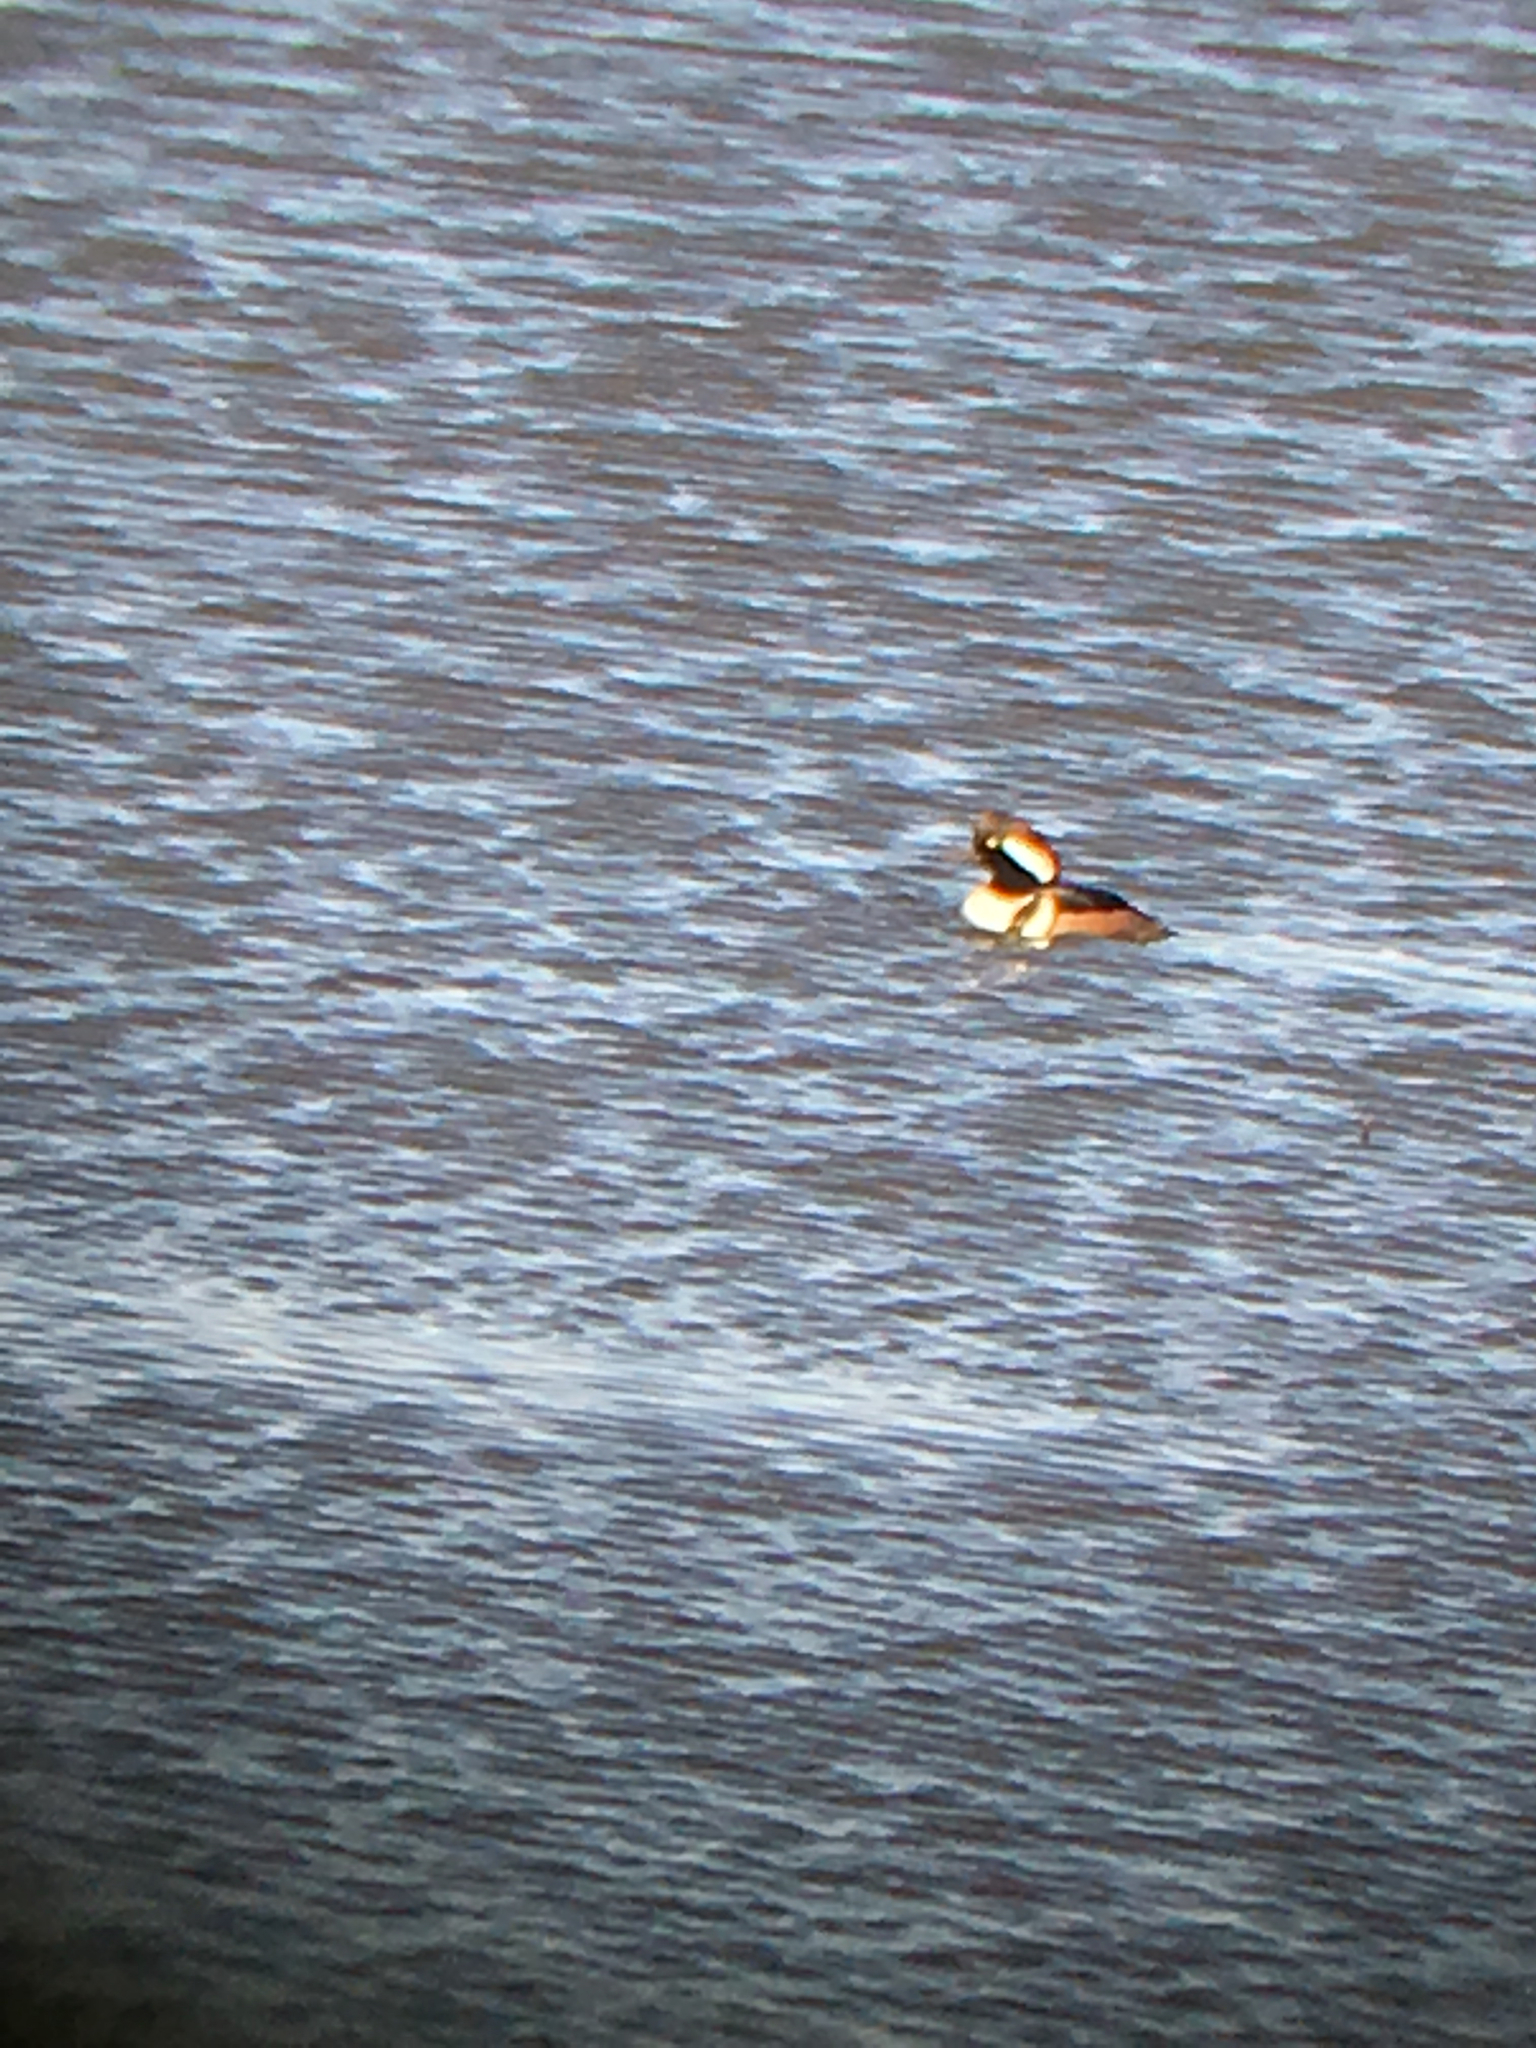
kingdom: Animalia
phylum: Chordata
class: Aves
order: Anseriformes
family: Anatidae
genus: Lophodytes
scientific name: Lophodytes cucullatus
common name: Hooded merganser
